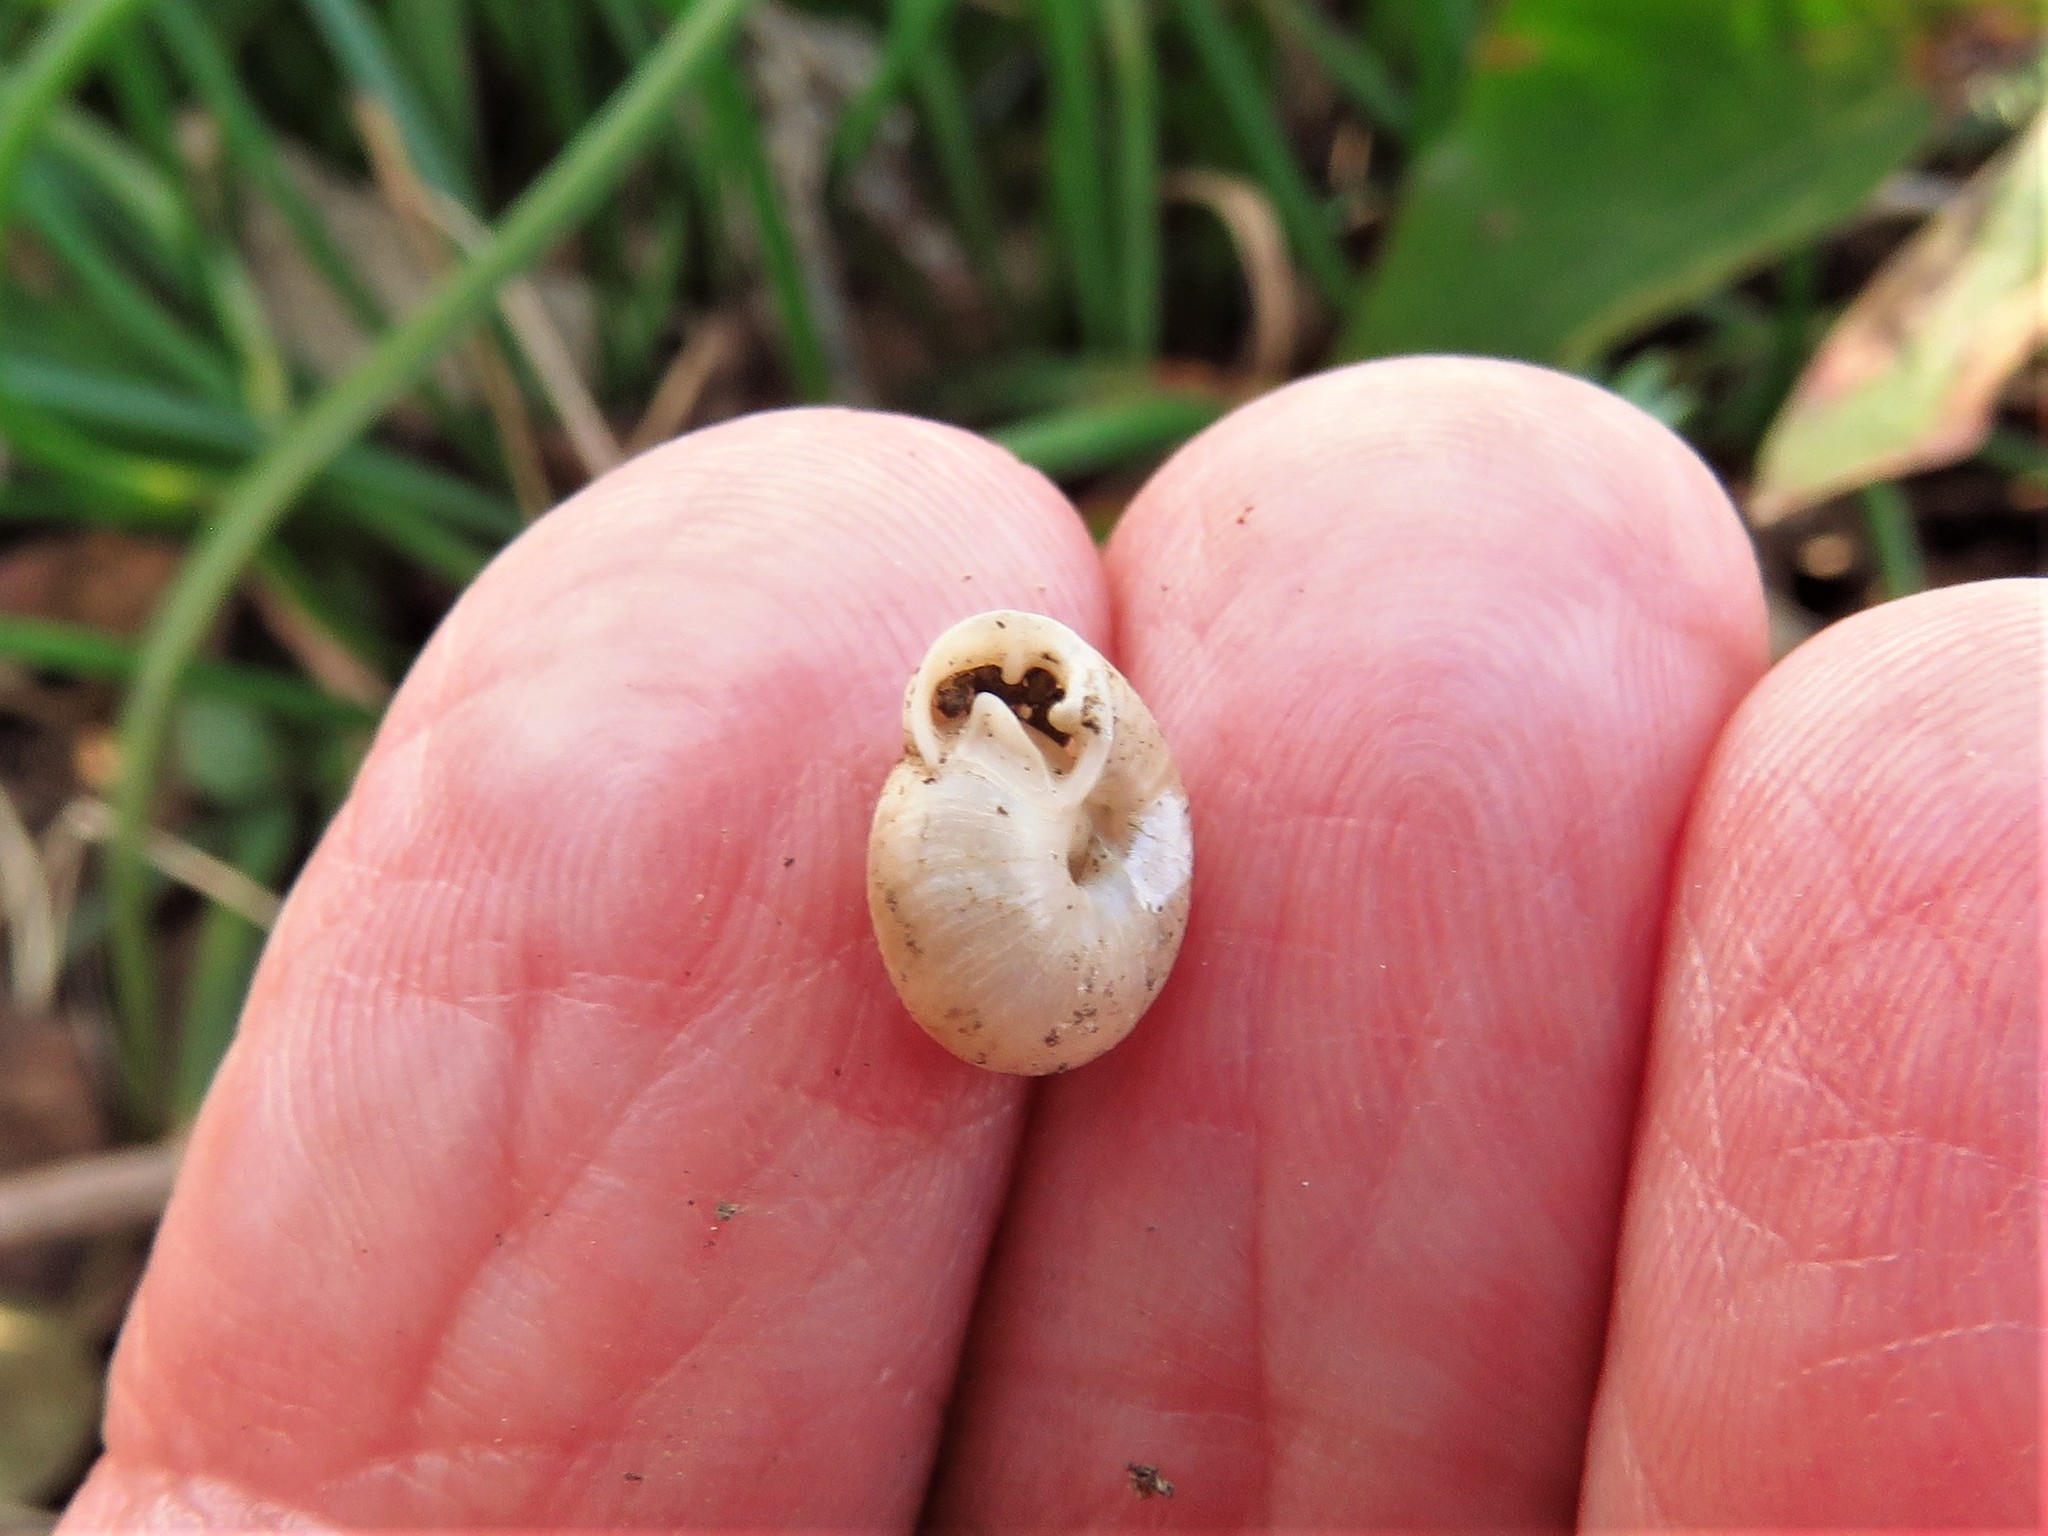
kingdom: Animalia
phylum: Mollusca
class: Gastropoda
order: Stylommatophora
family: Polygyridae
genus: Linisa
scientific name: Linisa texasiana
